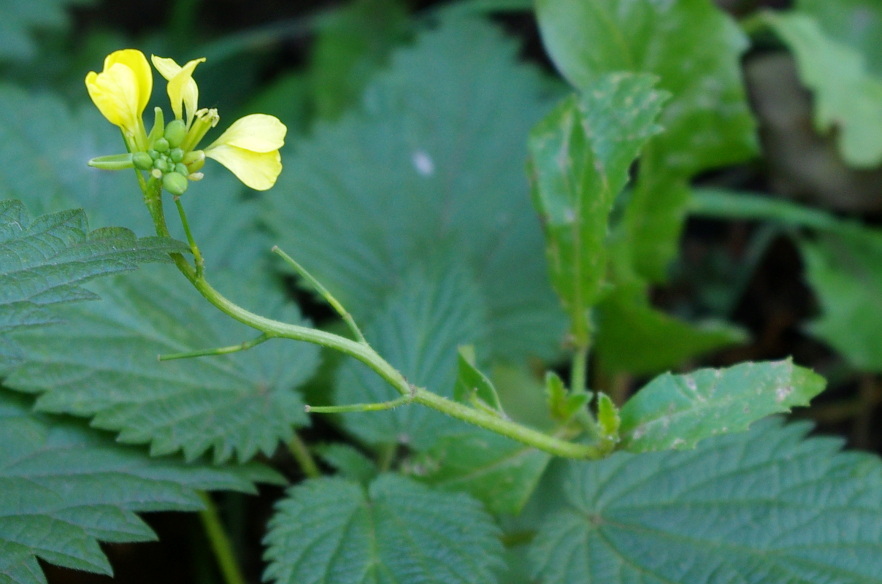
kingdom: Plantae
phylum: Tracheophyta
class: Magnoliopsida
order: Brassicales
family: Brassicaceae
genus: Sinapis
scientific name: Sinapis arvensis
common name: Charlock
